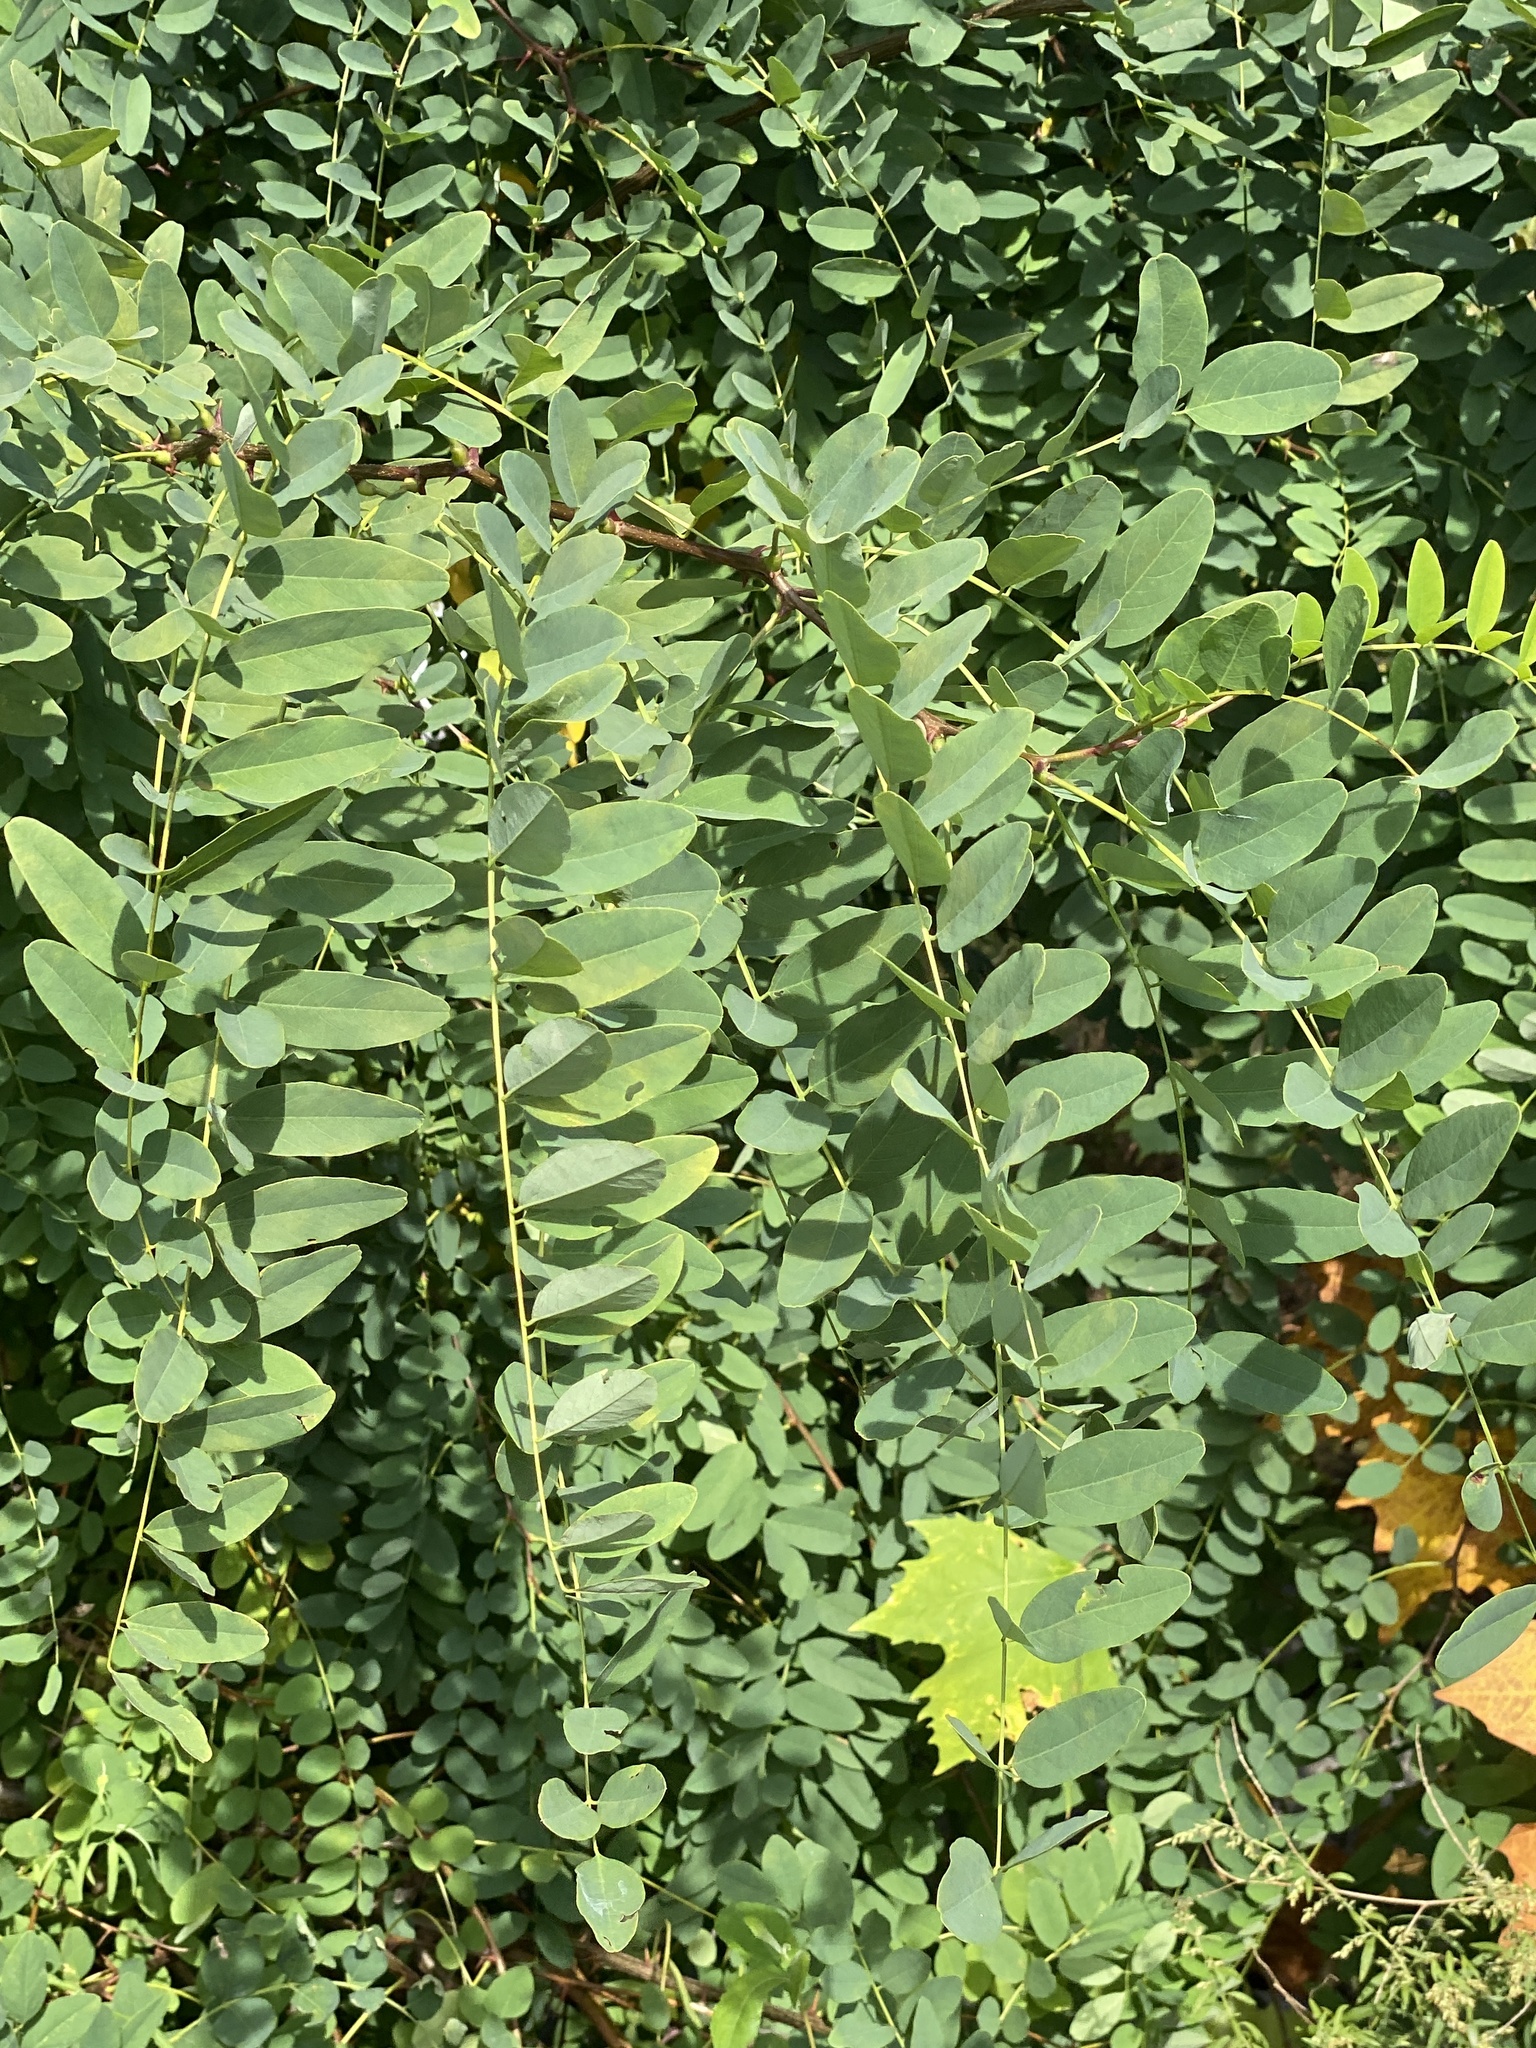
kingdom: Plantae
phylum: Tracheophyta
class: Magnoliopsida
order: Fabales
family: Fabaceae
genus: Robinia
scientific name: Robinia pseudoacacia
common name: Black locust
